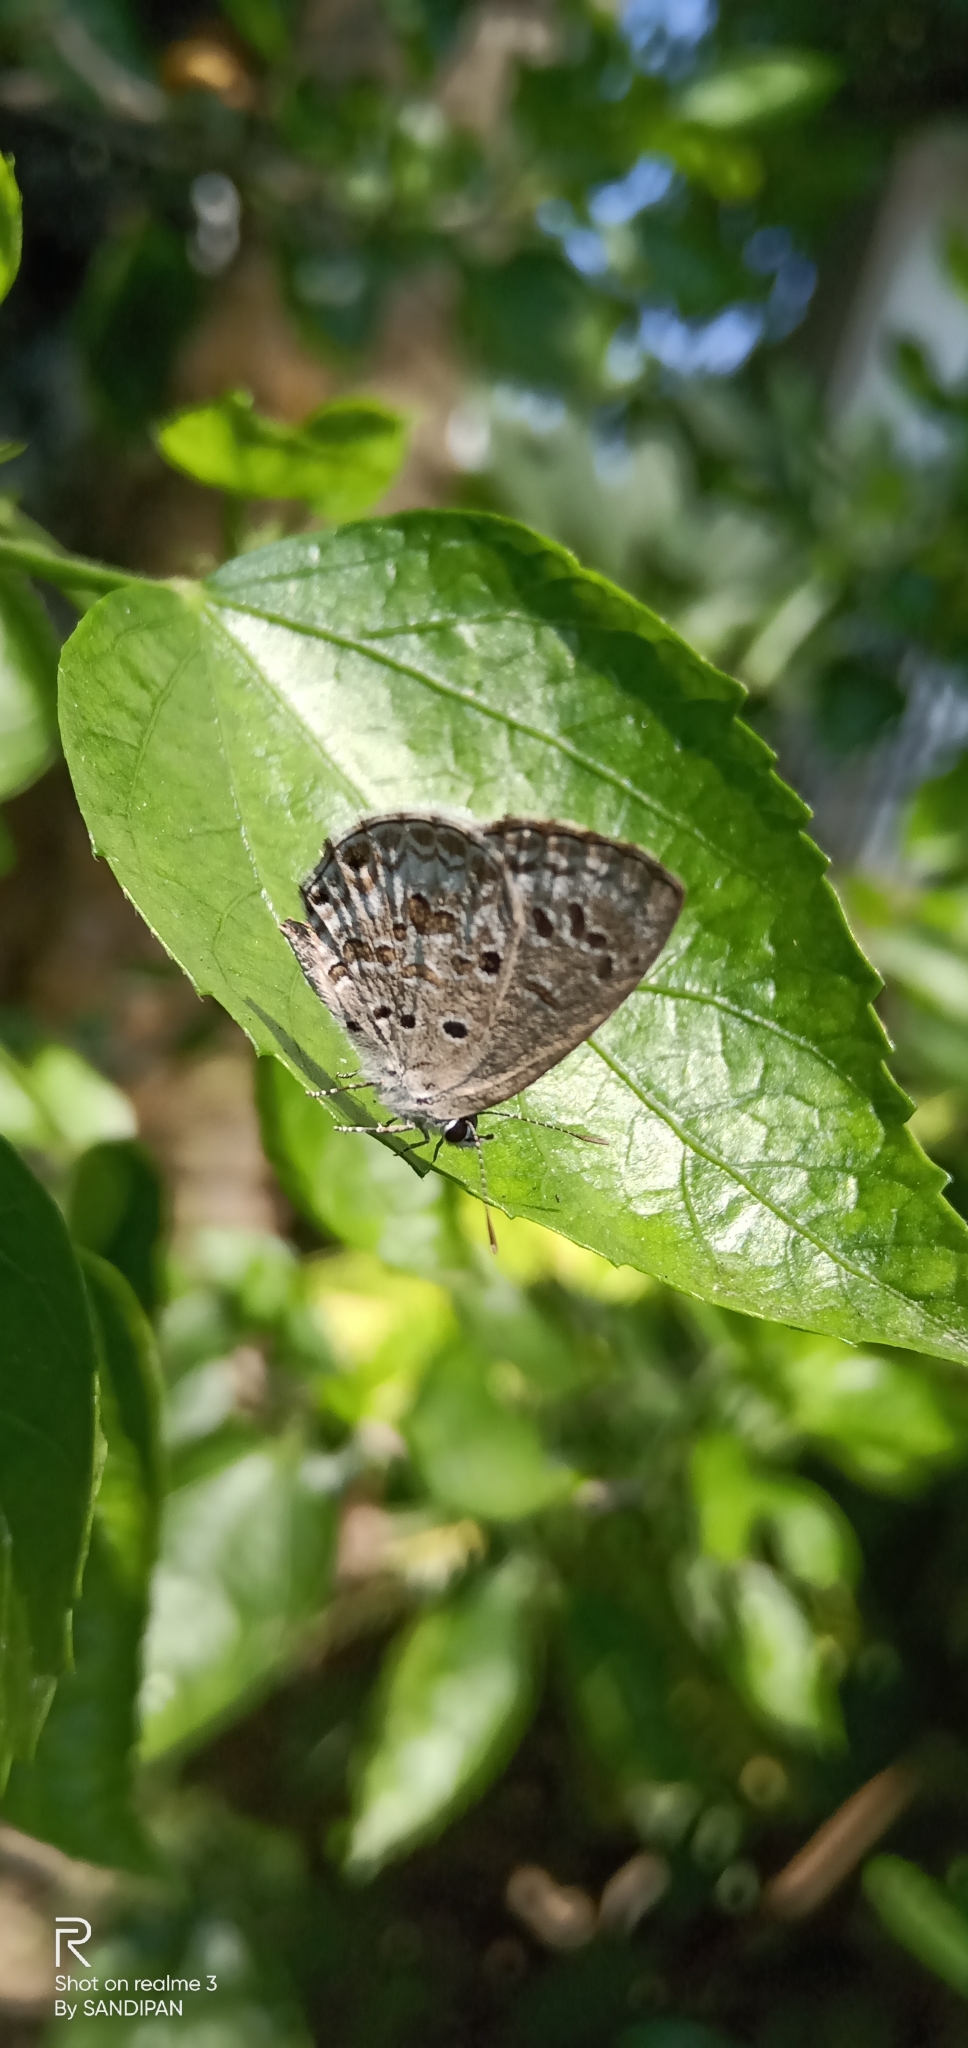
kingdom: Animalia
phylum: Arthropoda
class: Insecta
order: Lepidoptera
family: Lycaenidae
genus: Chilades
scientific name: Chilades laius
